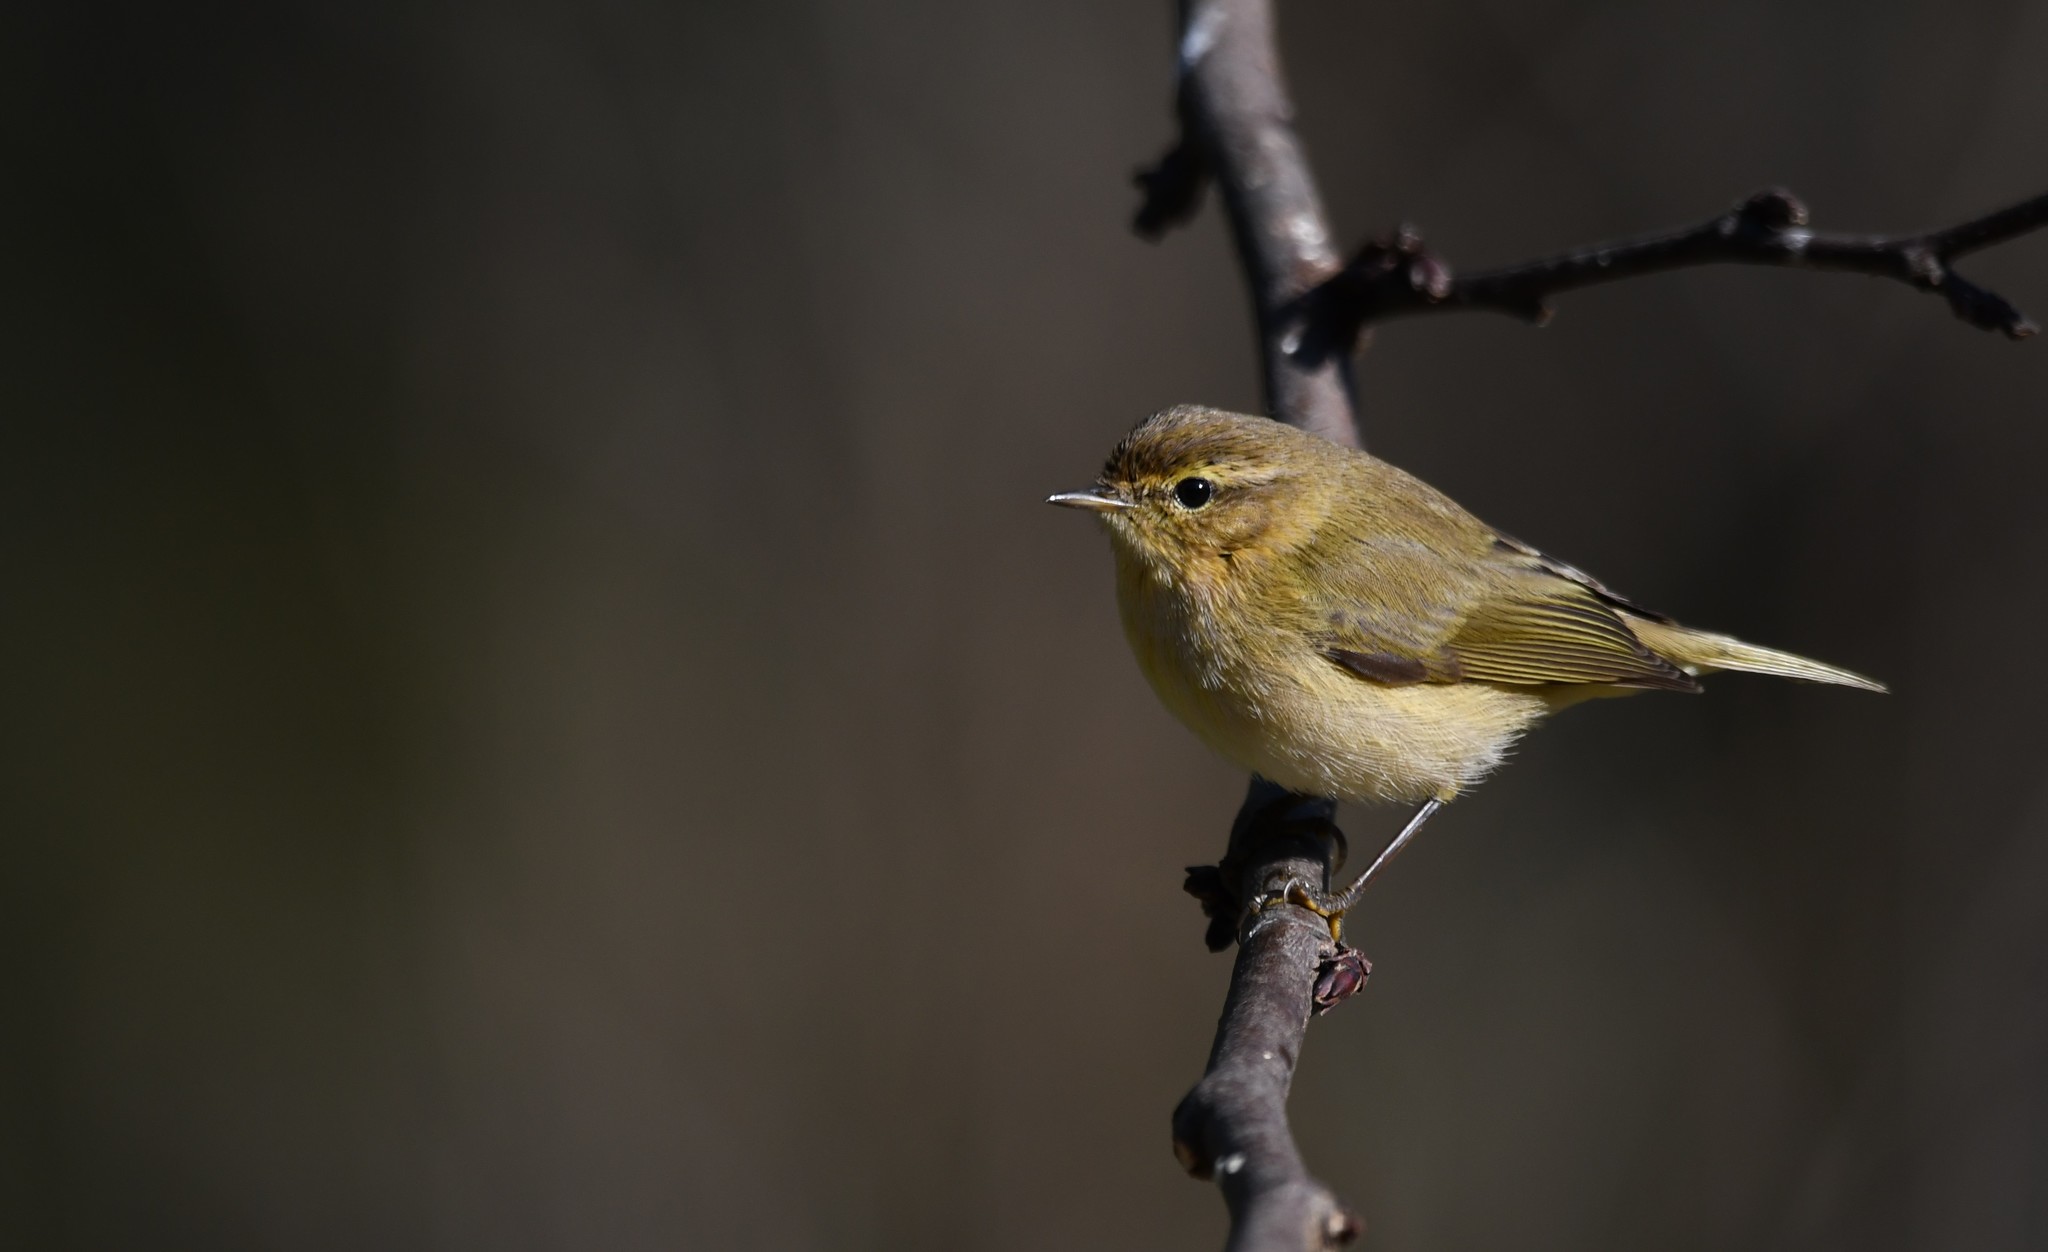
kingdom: Animalia
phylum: Chordata
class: Aves
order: Passeriformes
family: Phylloscopidae
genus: Phylloscopus
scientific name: Phylloscopus collybita
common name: Common chiffchaff
